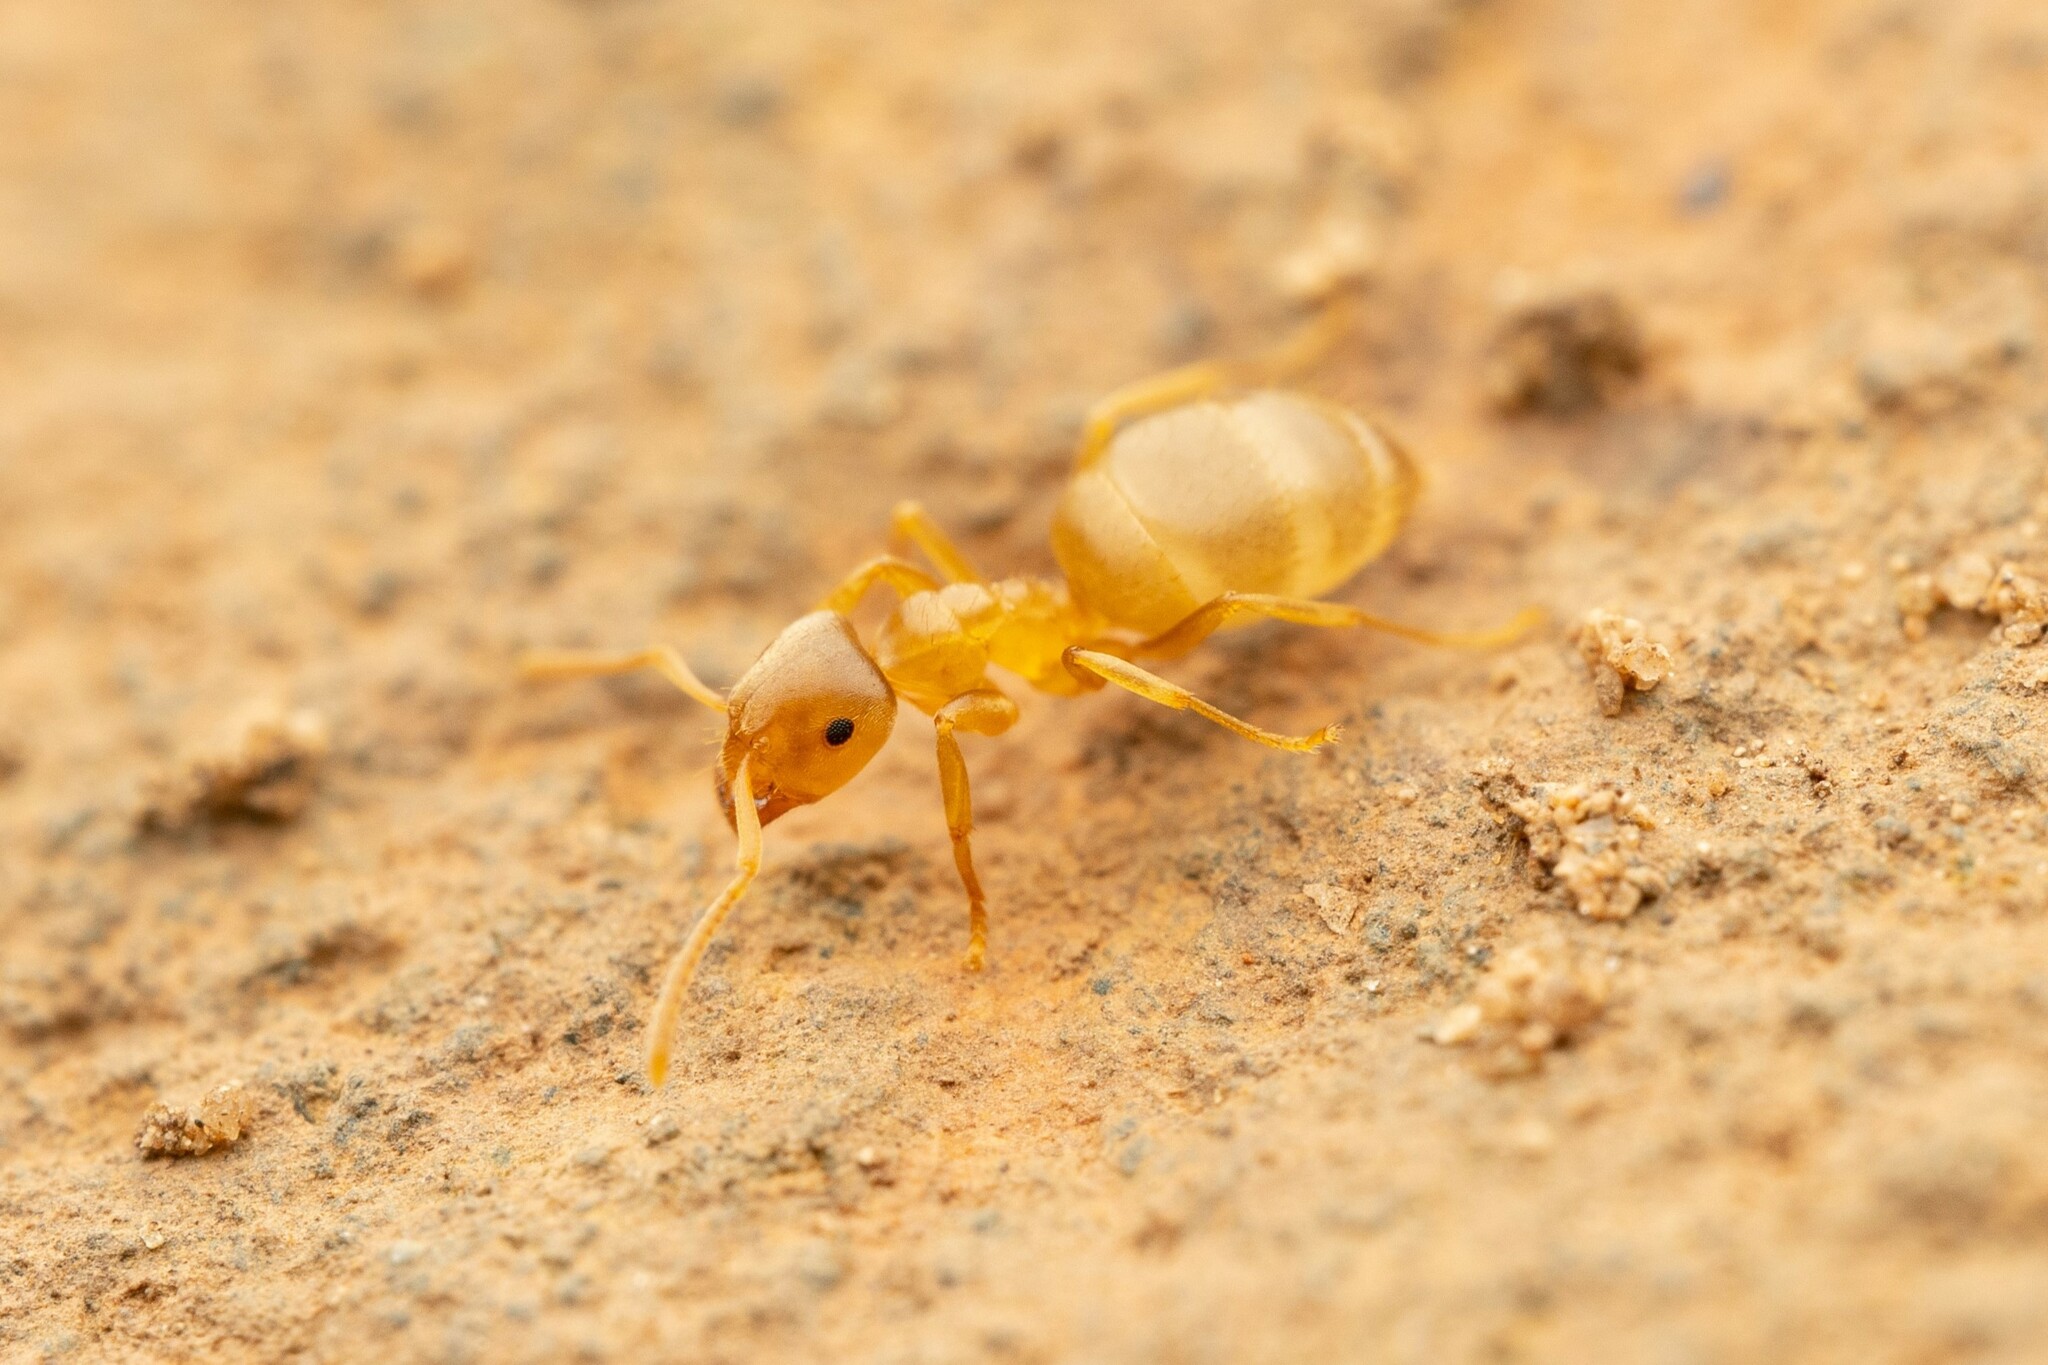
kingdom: Animalia
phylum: Arthropoda
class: Insecta
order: Hymenoptera
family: Formicidae
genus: Lasius
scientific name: Lasius sitiens
